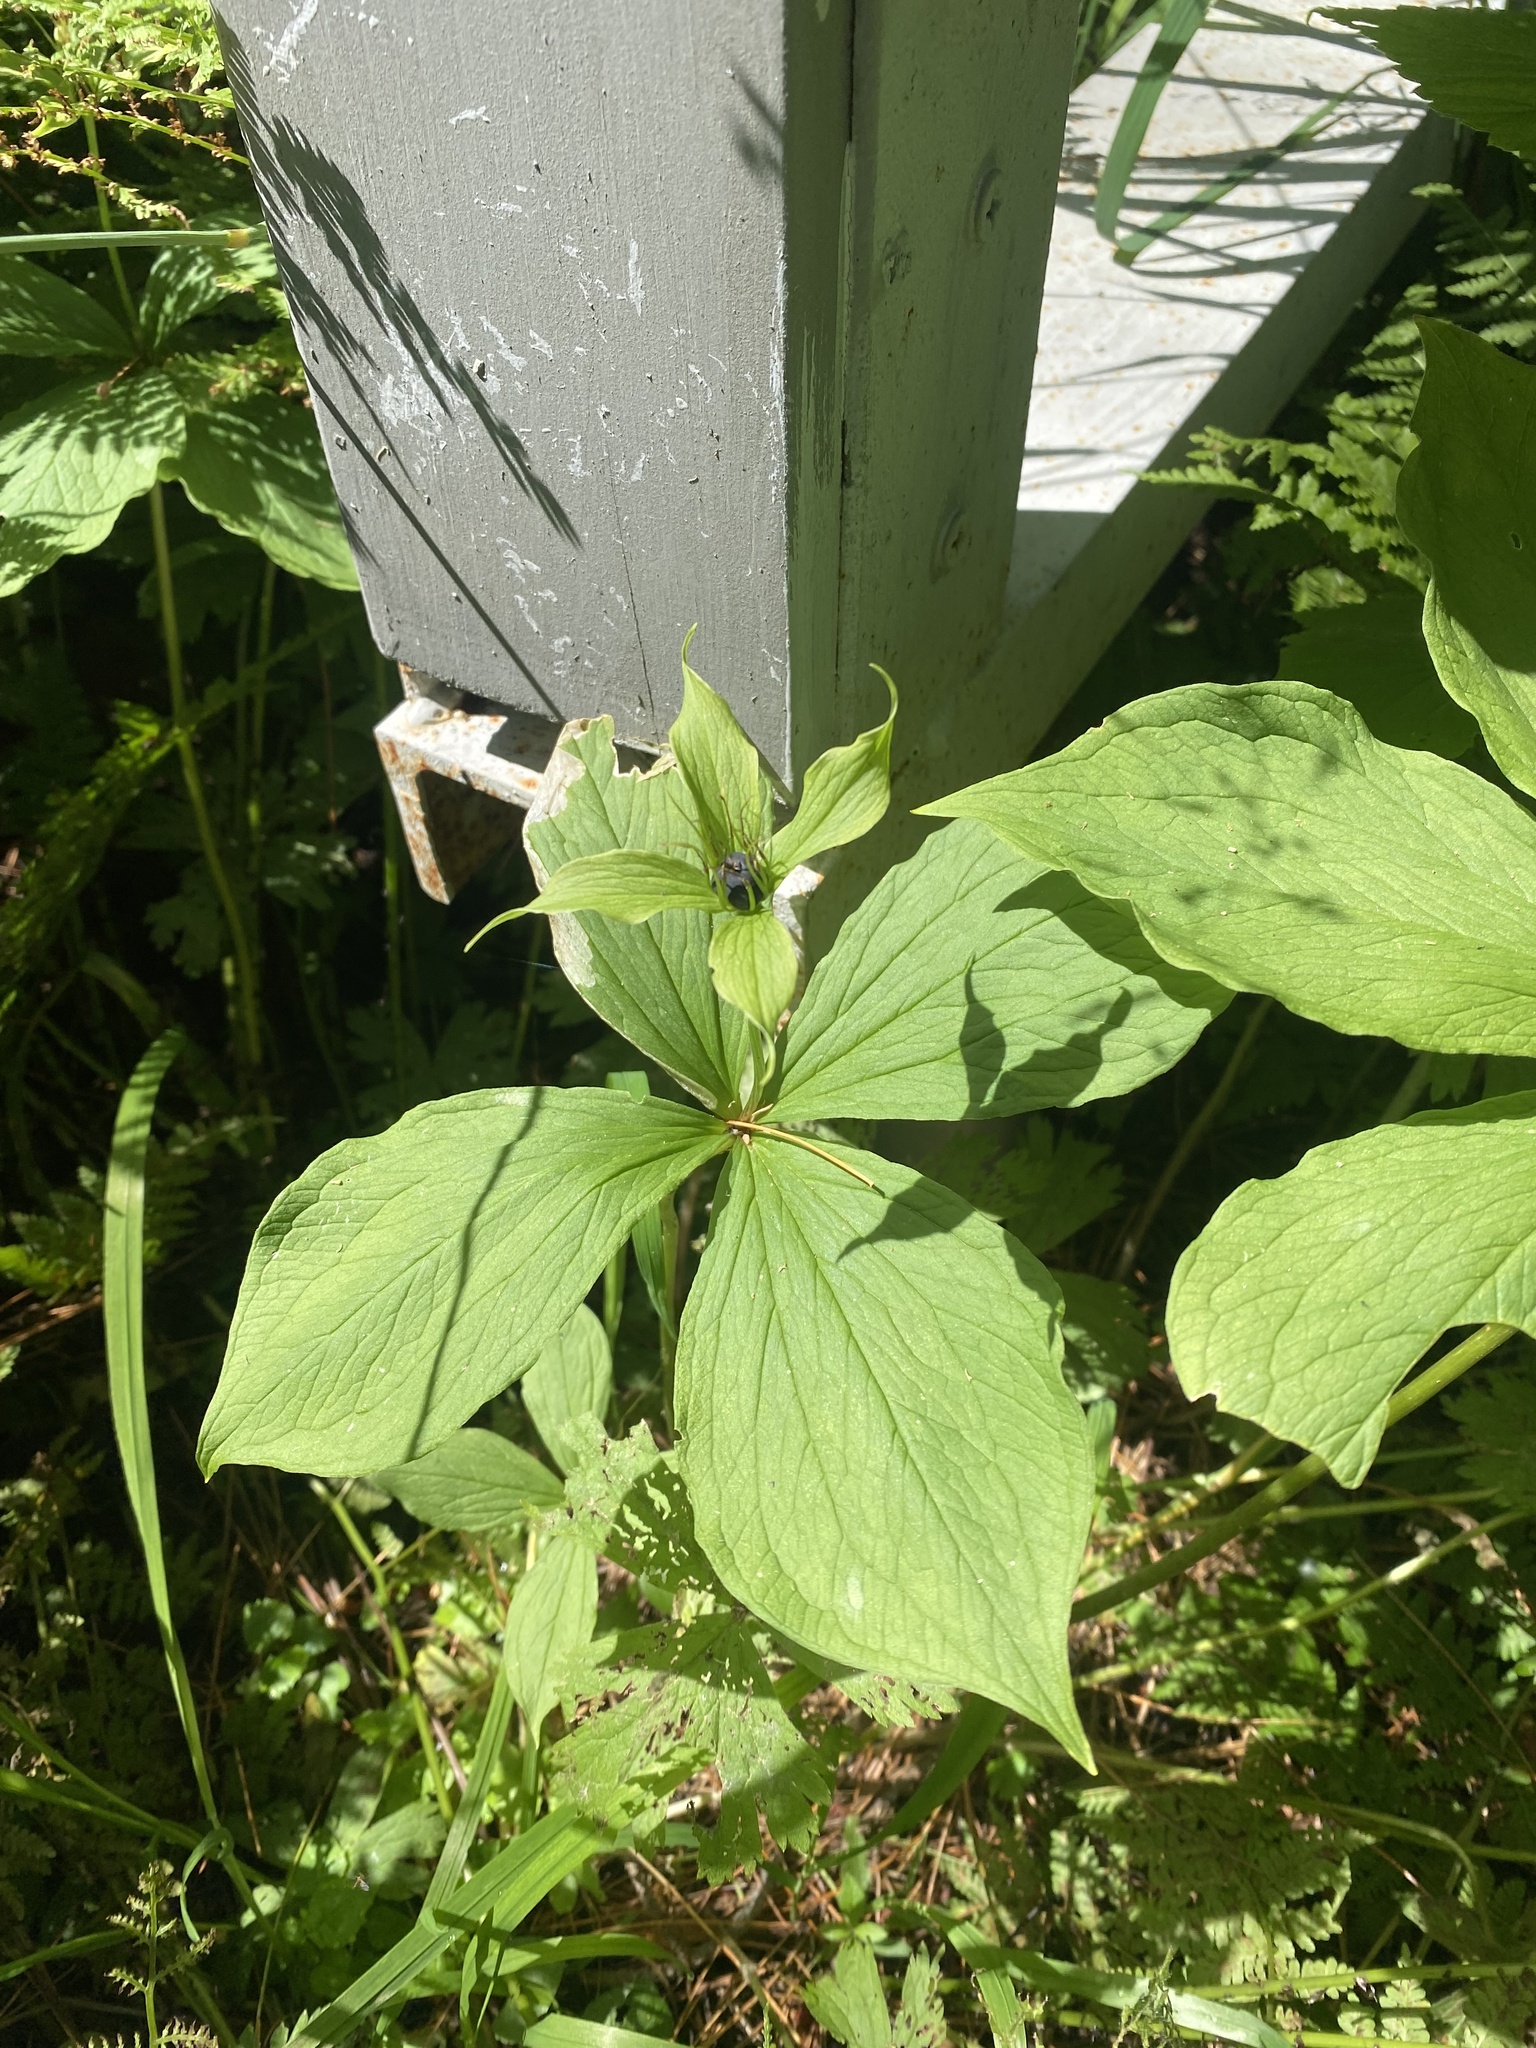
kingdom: Plantae
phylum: Tracheophyta
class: Liliopsida
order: Liliales
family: Melanthiaceae
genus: Paris
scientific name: Paris verticillata
